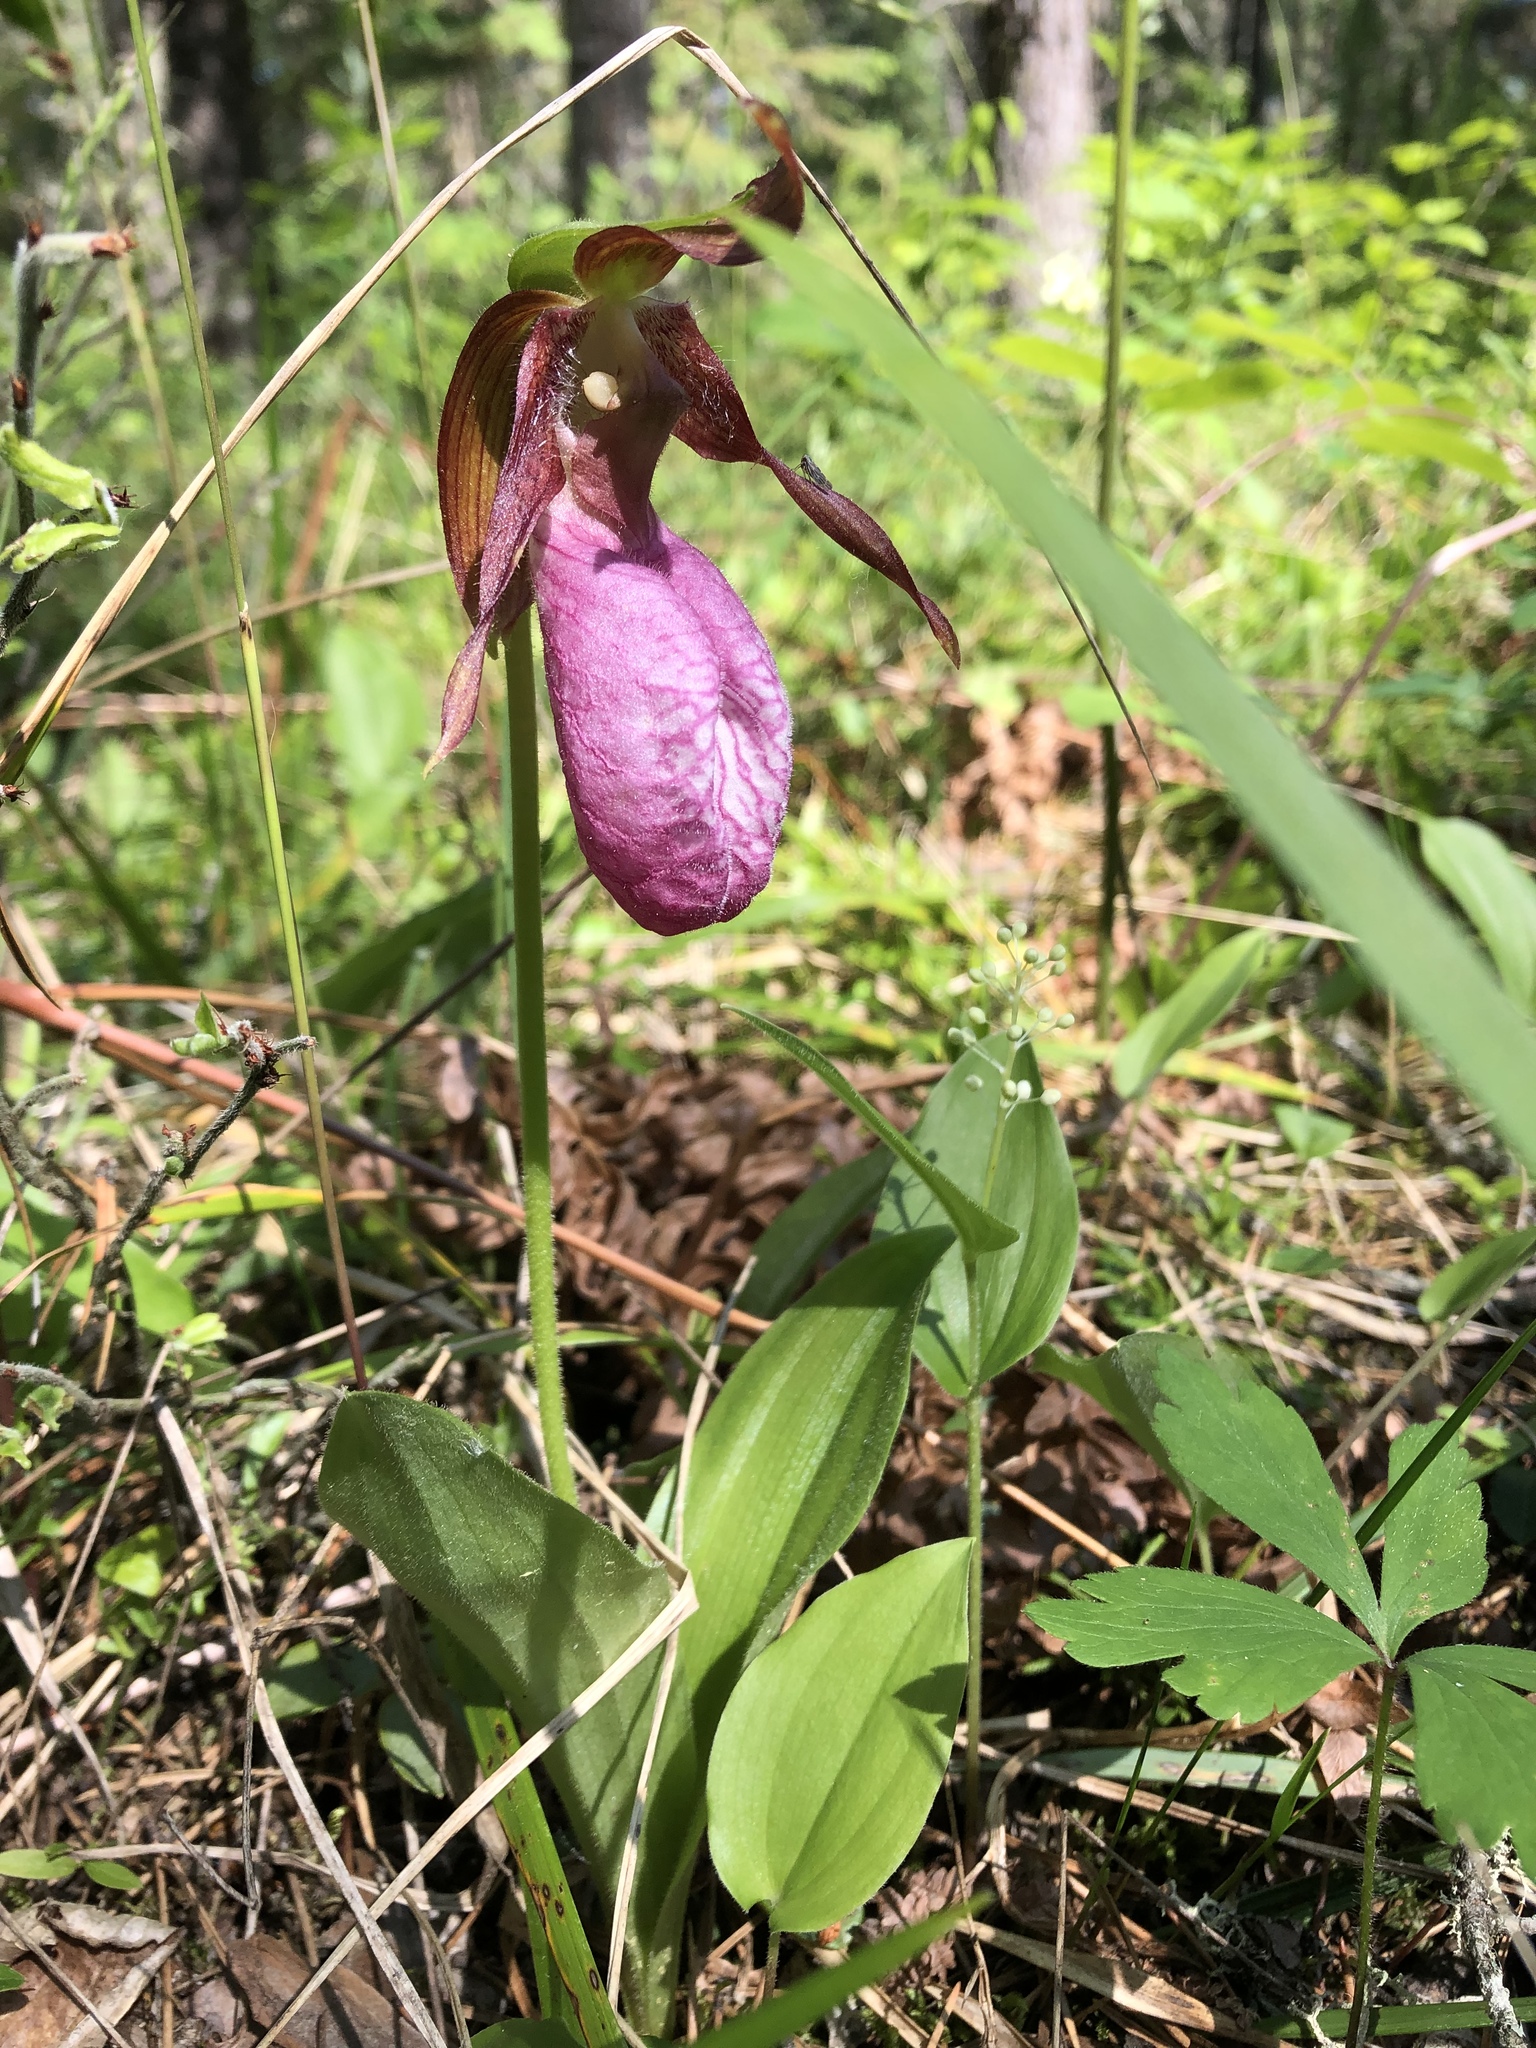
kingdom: Plantae
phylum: Tracheophyta
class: Liliopsida
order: Asparagales
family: Orchidaceae
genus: Cypripedium
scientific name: Cypripedium acaule
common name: Pink lady's-slipper
